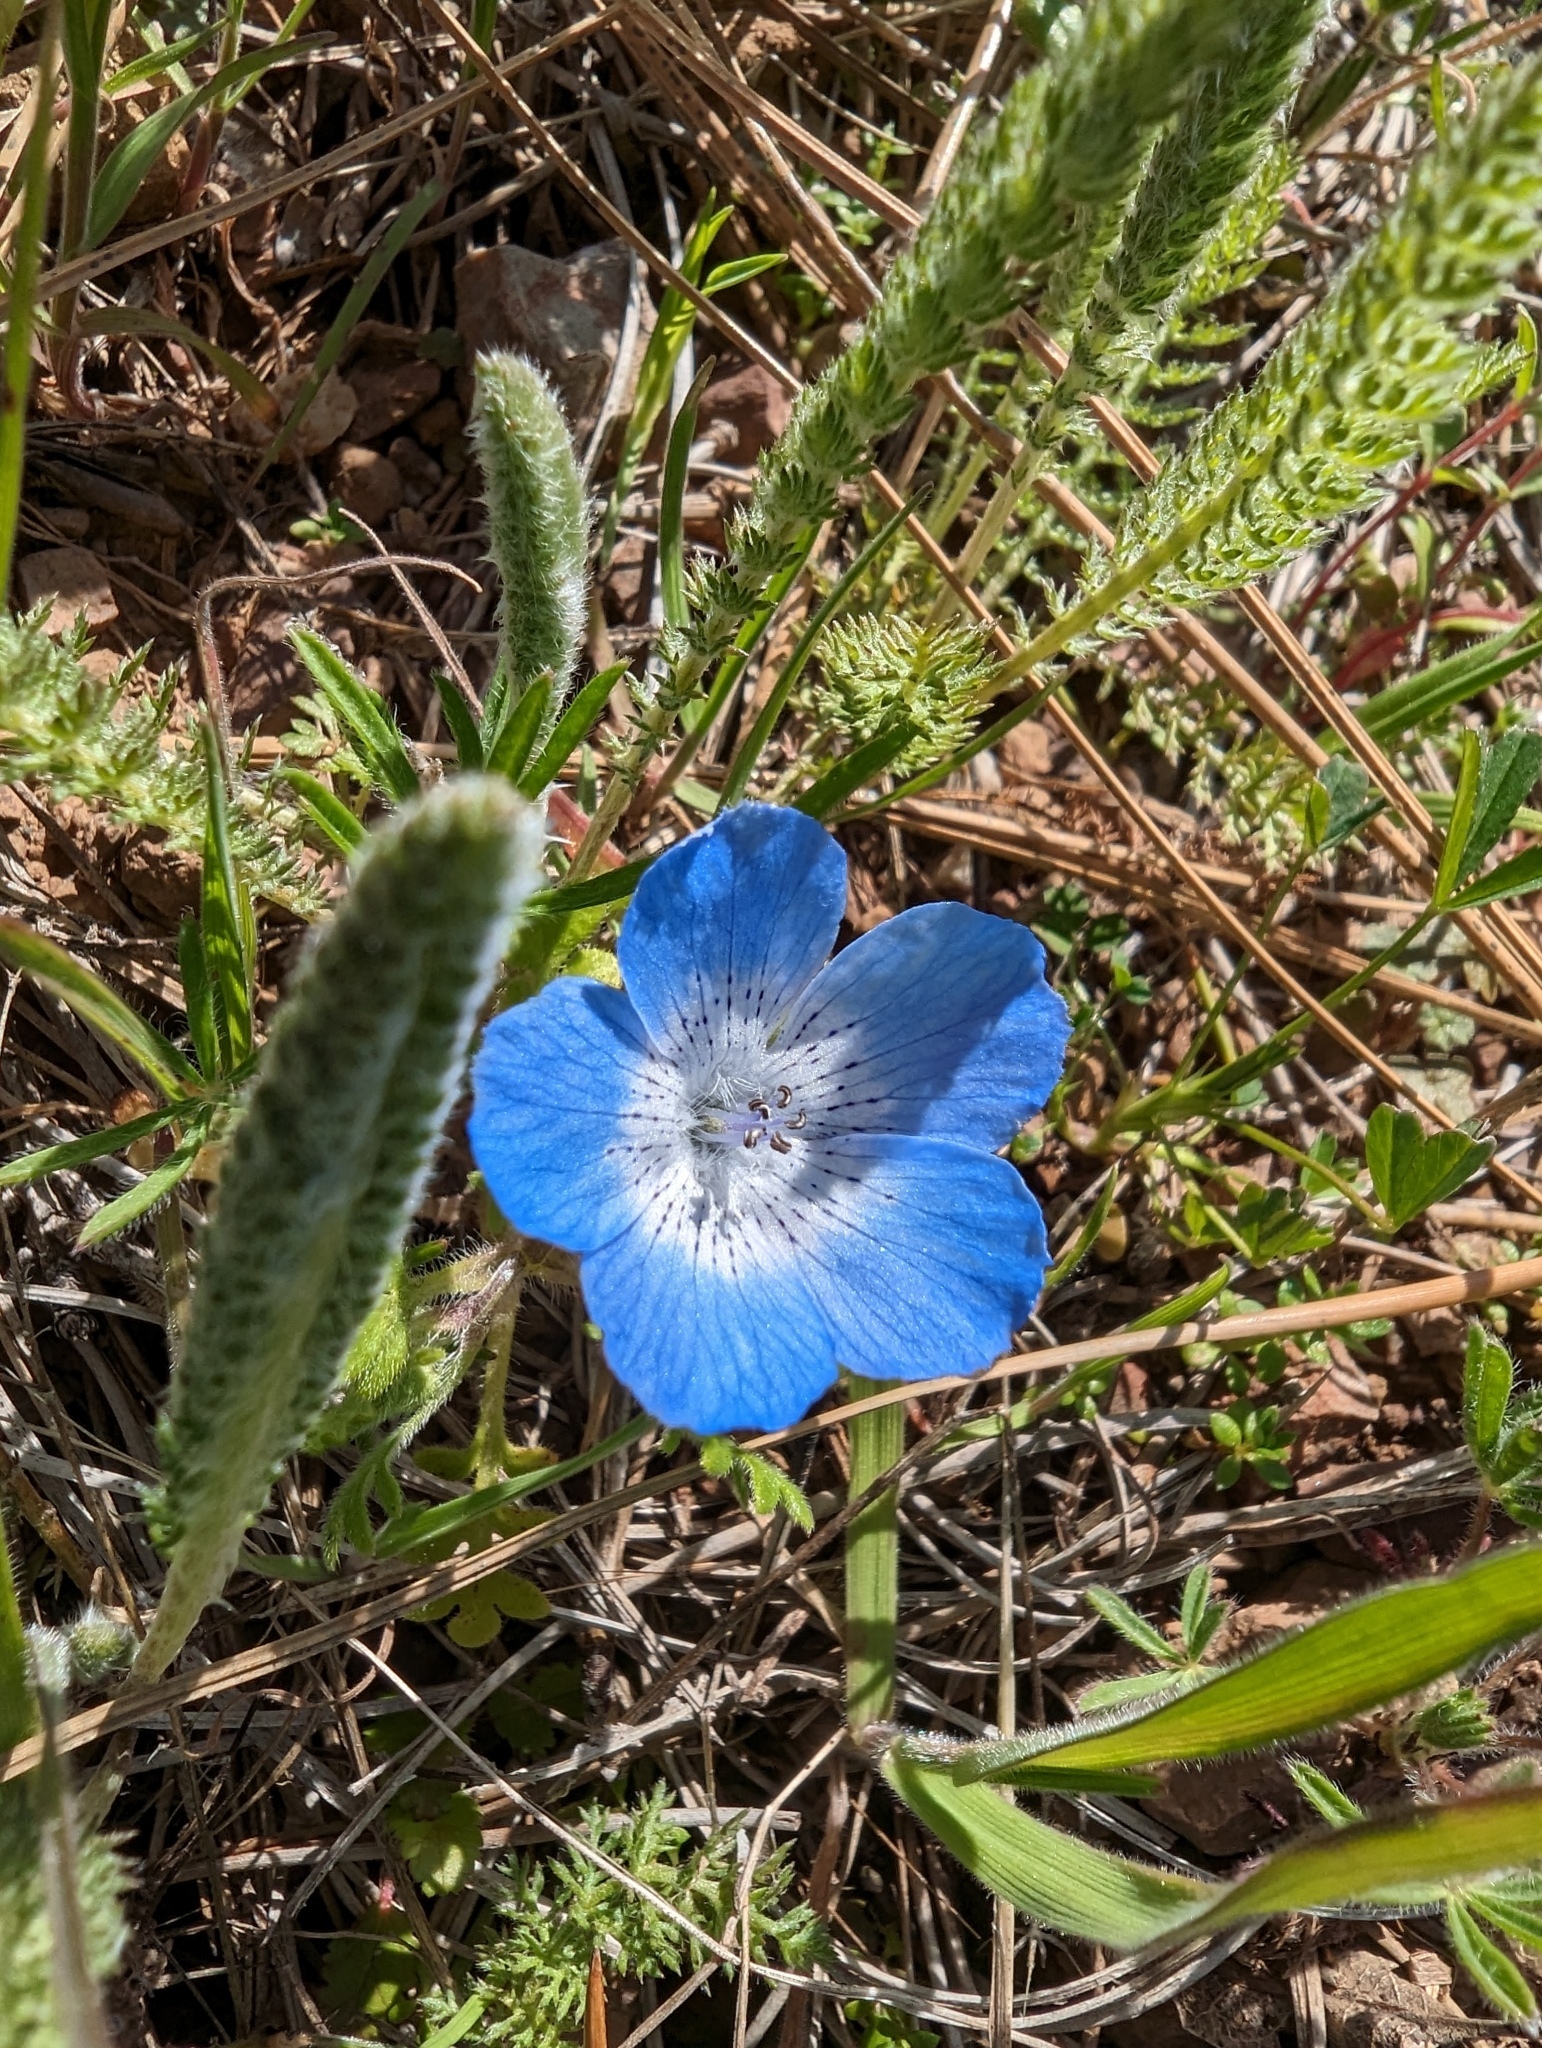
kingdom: Plantae
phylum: Tracheophyta
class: Magnoliopsida
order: Boraginales
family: Hydrophyllaceae
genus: Nemophila
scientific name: Nemophila menziesii
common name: Baby's-blue-eyes
